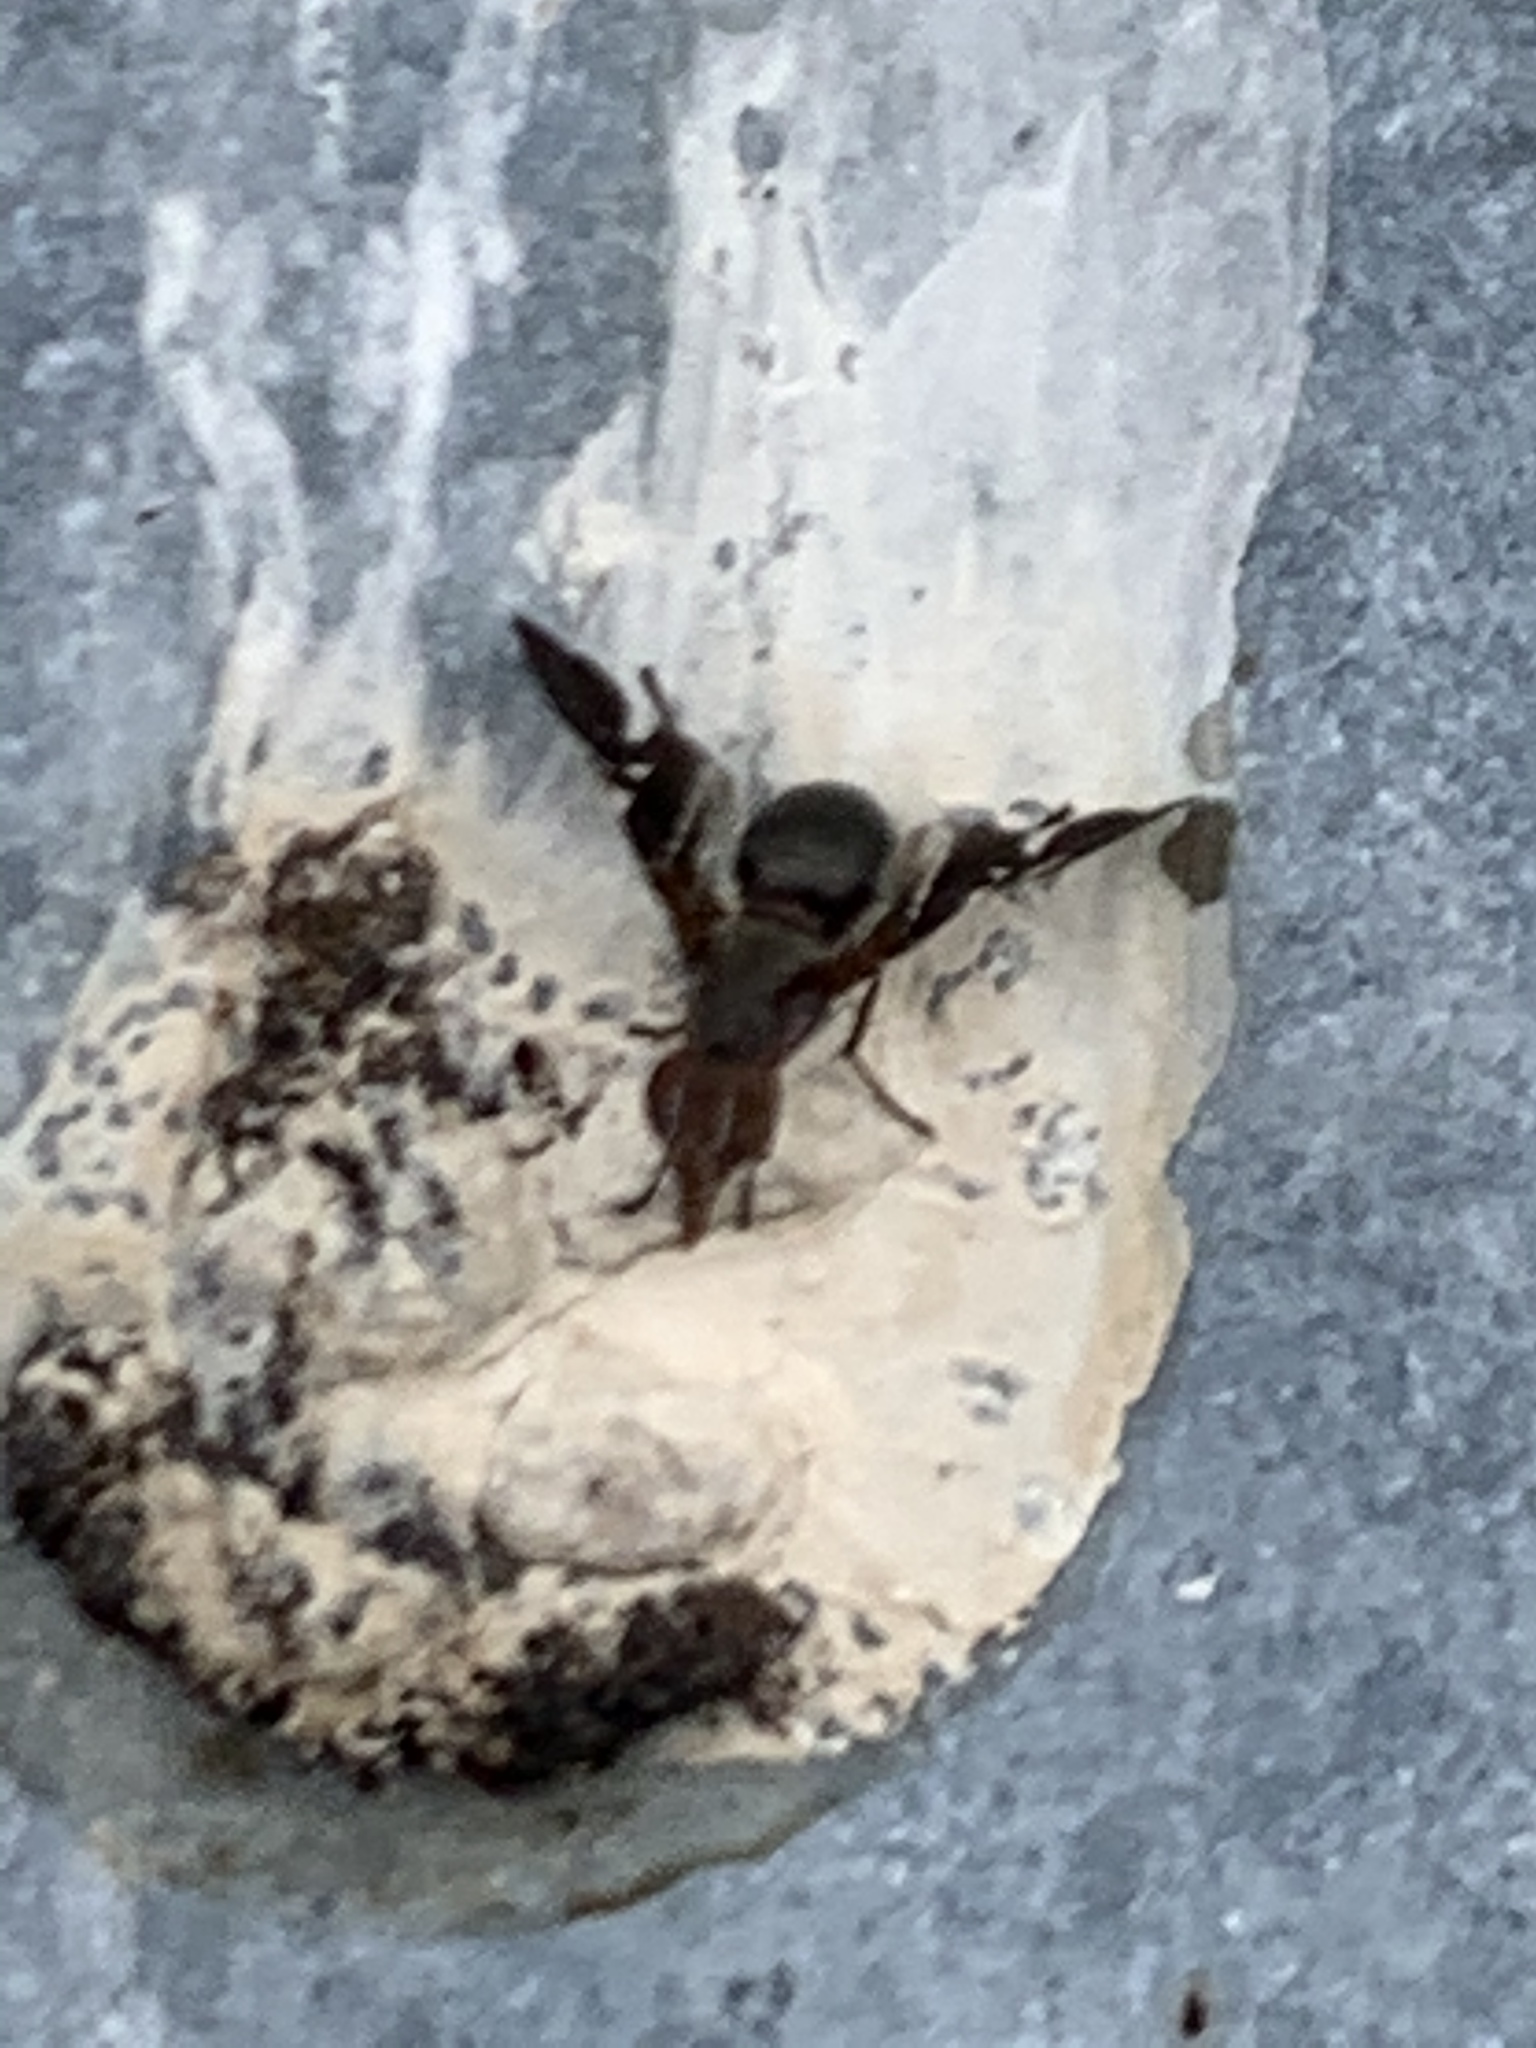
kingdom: Animalia
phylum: Arthropoda
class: Insecta
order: Diptera
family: Ulidiidae
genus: Delphinia
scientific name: Delphinia picta
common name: Common picture-winged fly
